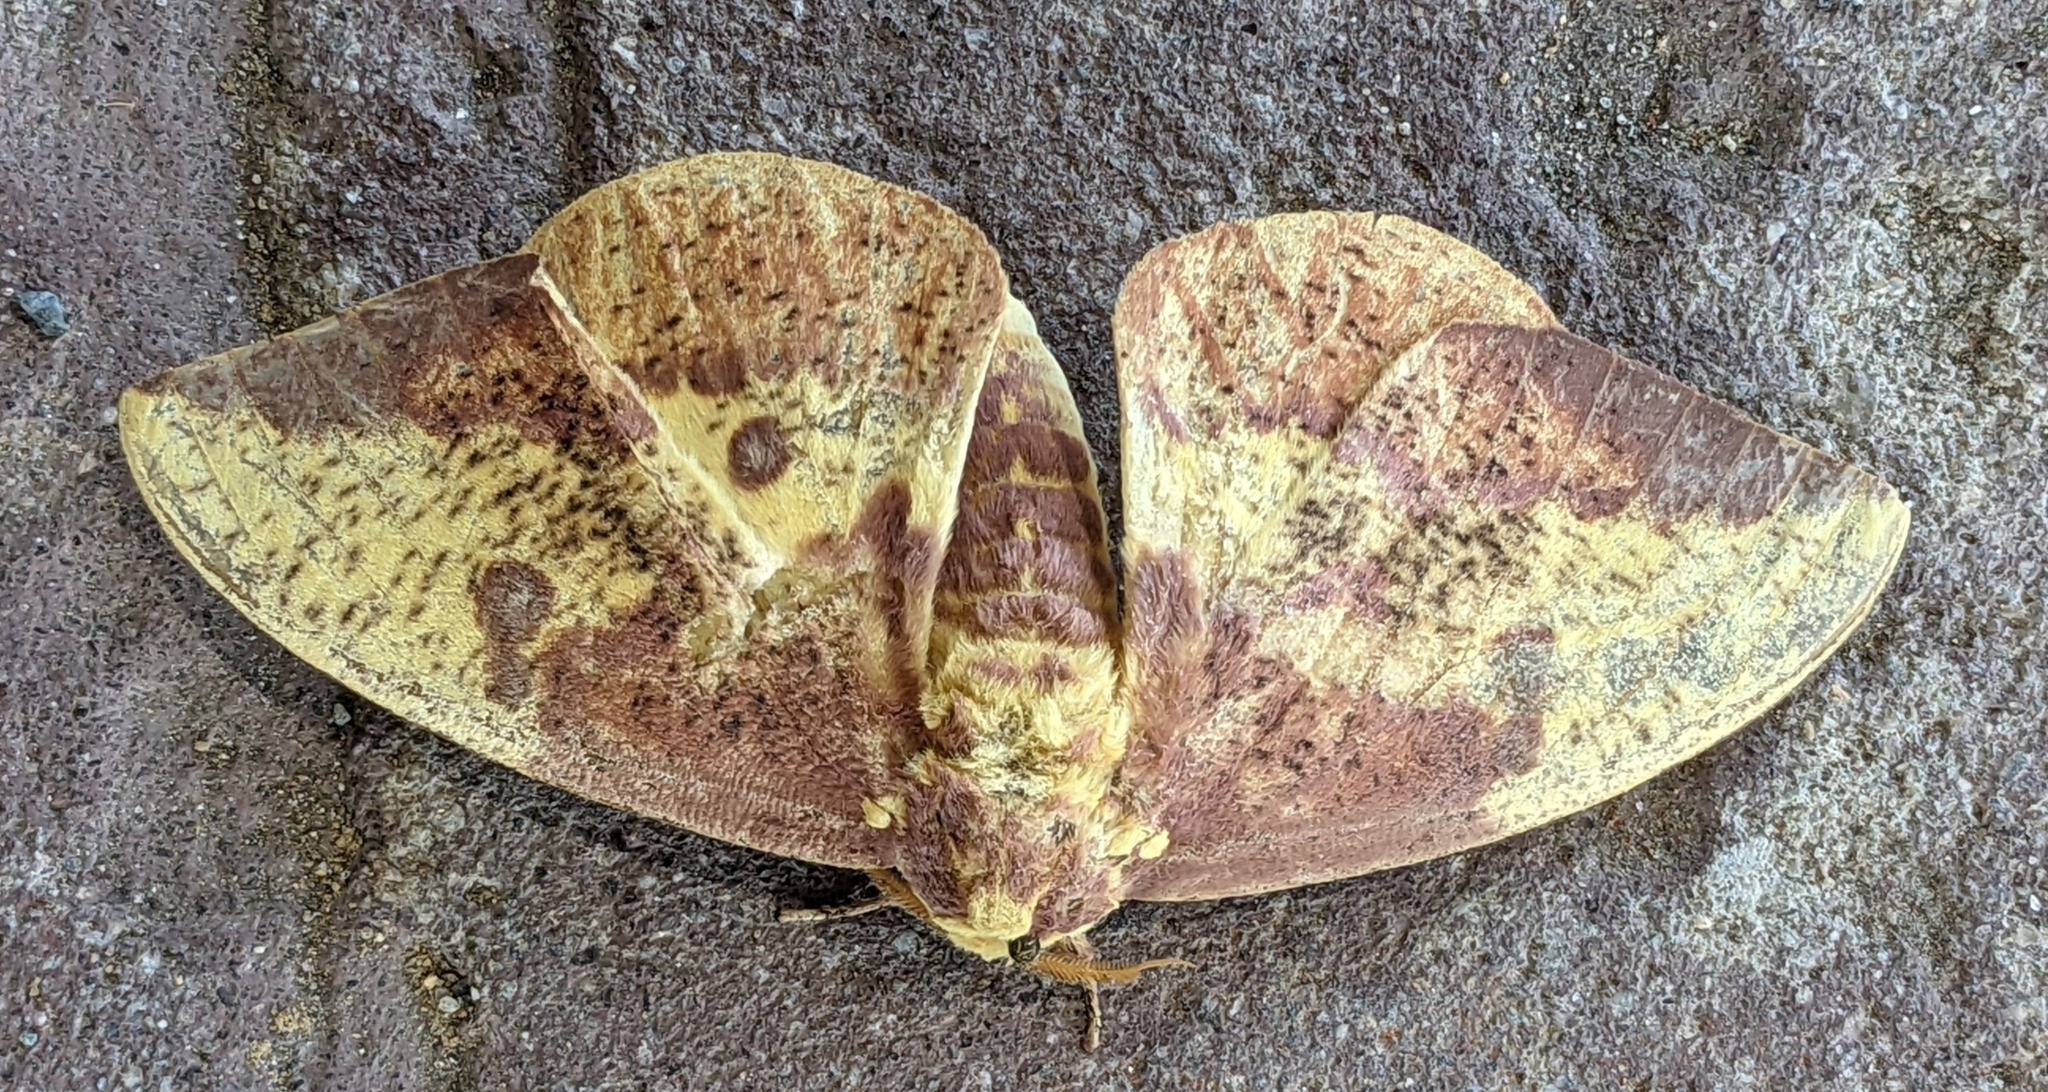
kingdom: Animalia
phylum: Arthropoda
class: Insecta
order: Lepidoptera
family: Saturniidae
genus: Eacles
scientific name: Eacles imperialis
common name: Imperial moth
